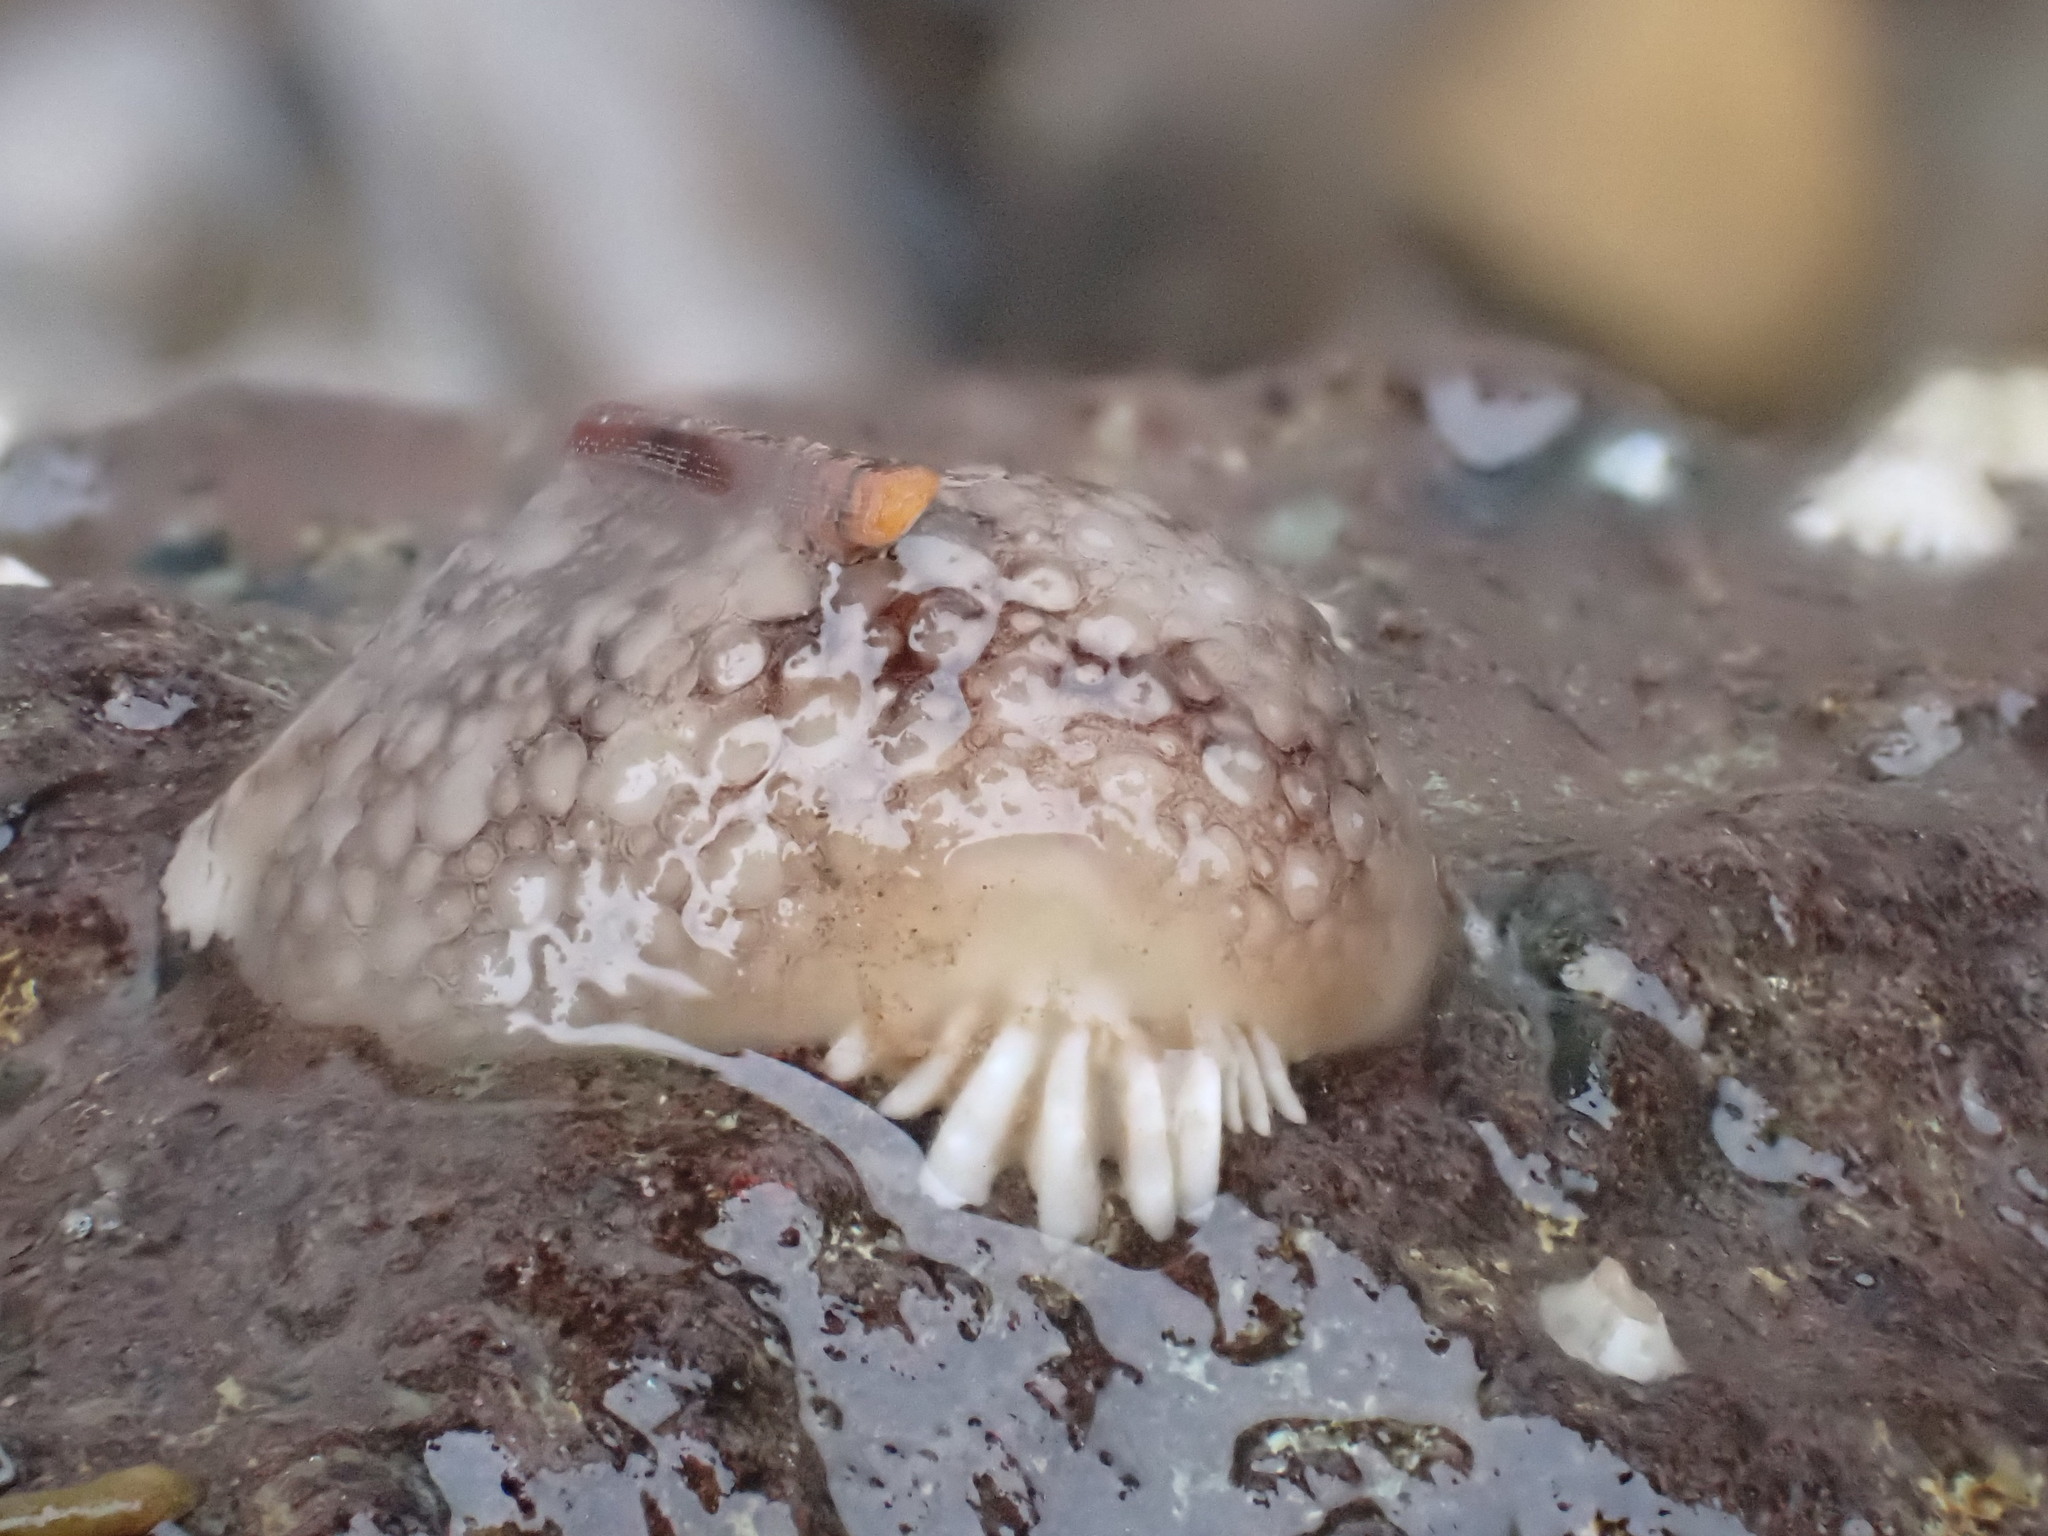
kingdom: Animalia
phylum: Mollusca
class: Gastropoda
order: Nudibranchia
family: Onchidorididae
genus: Onchidoris
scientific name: Onchidoris bilamellata
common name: Barnacle-eating onchidoris
